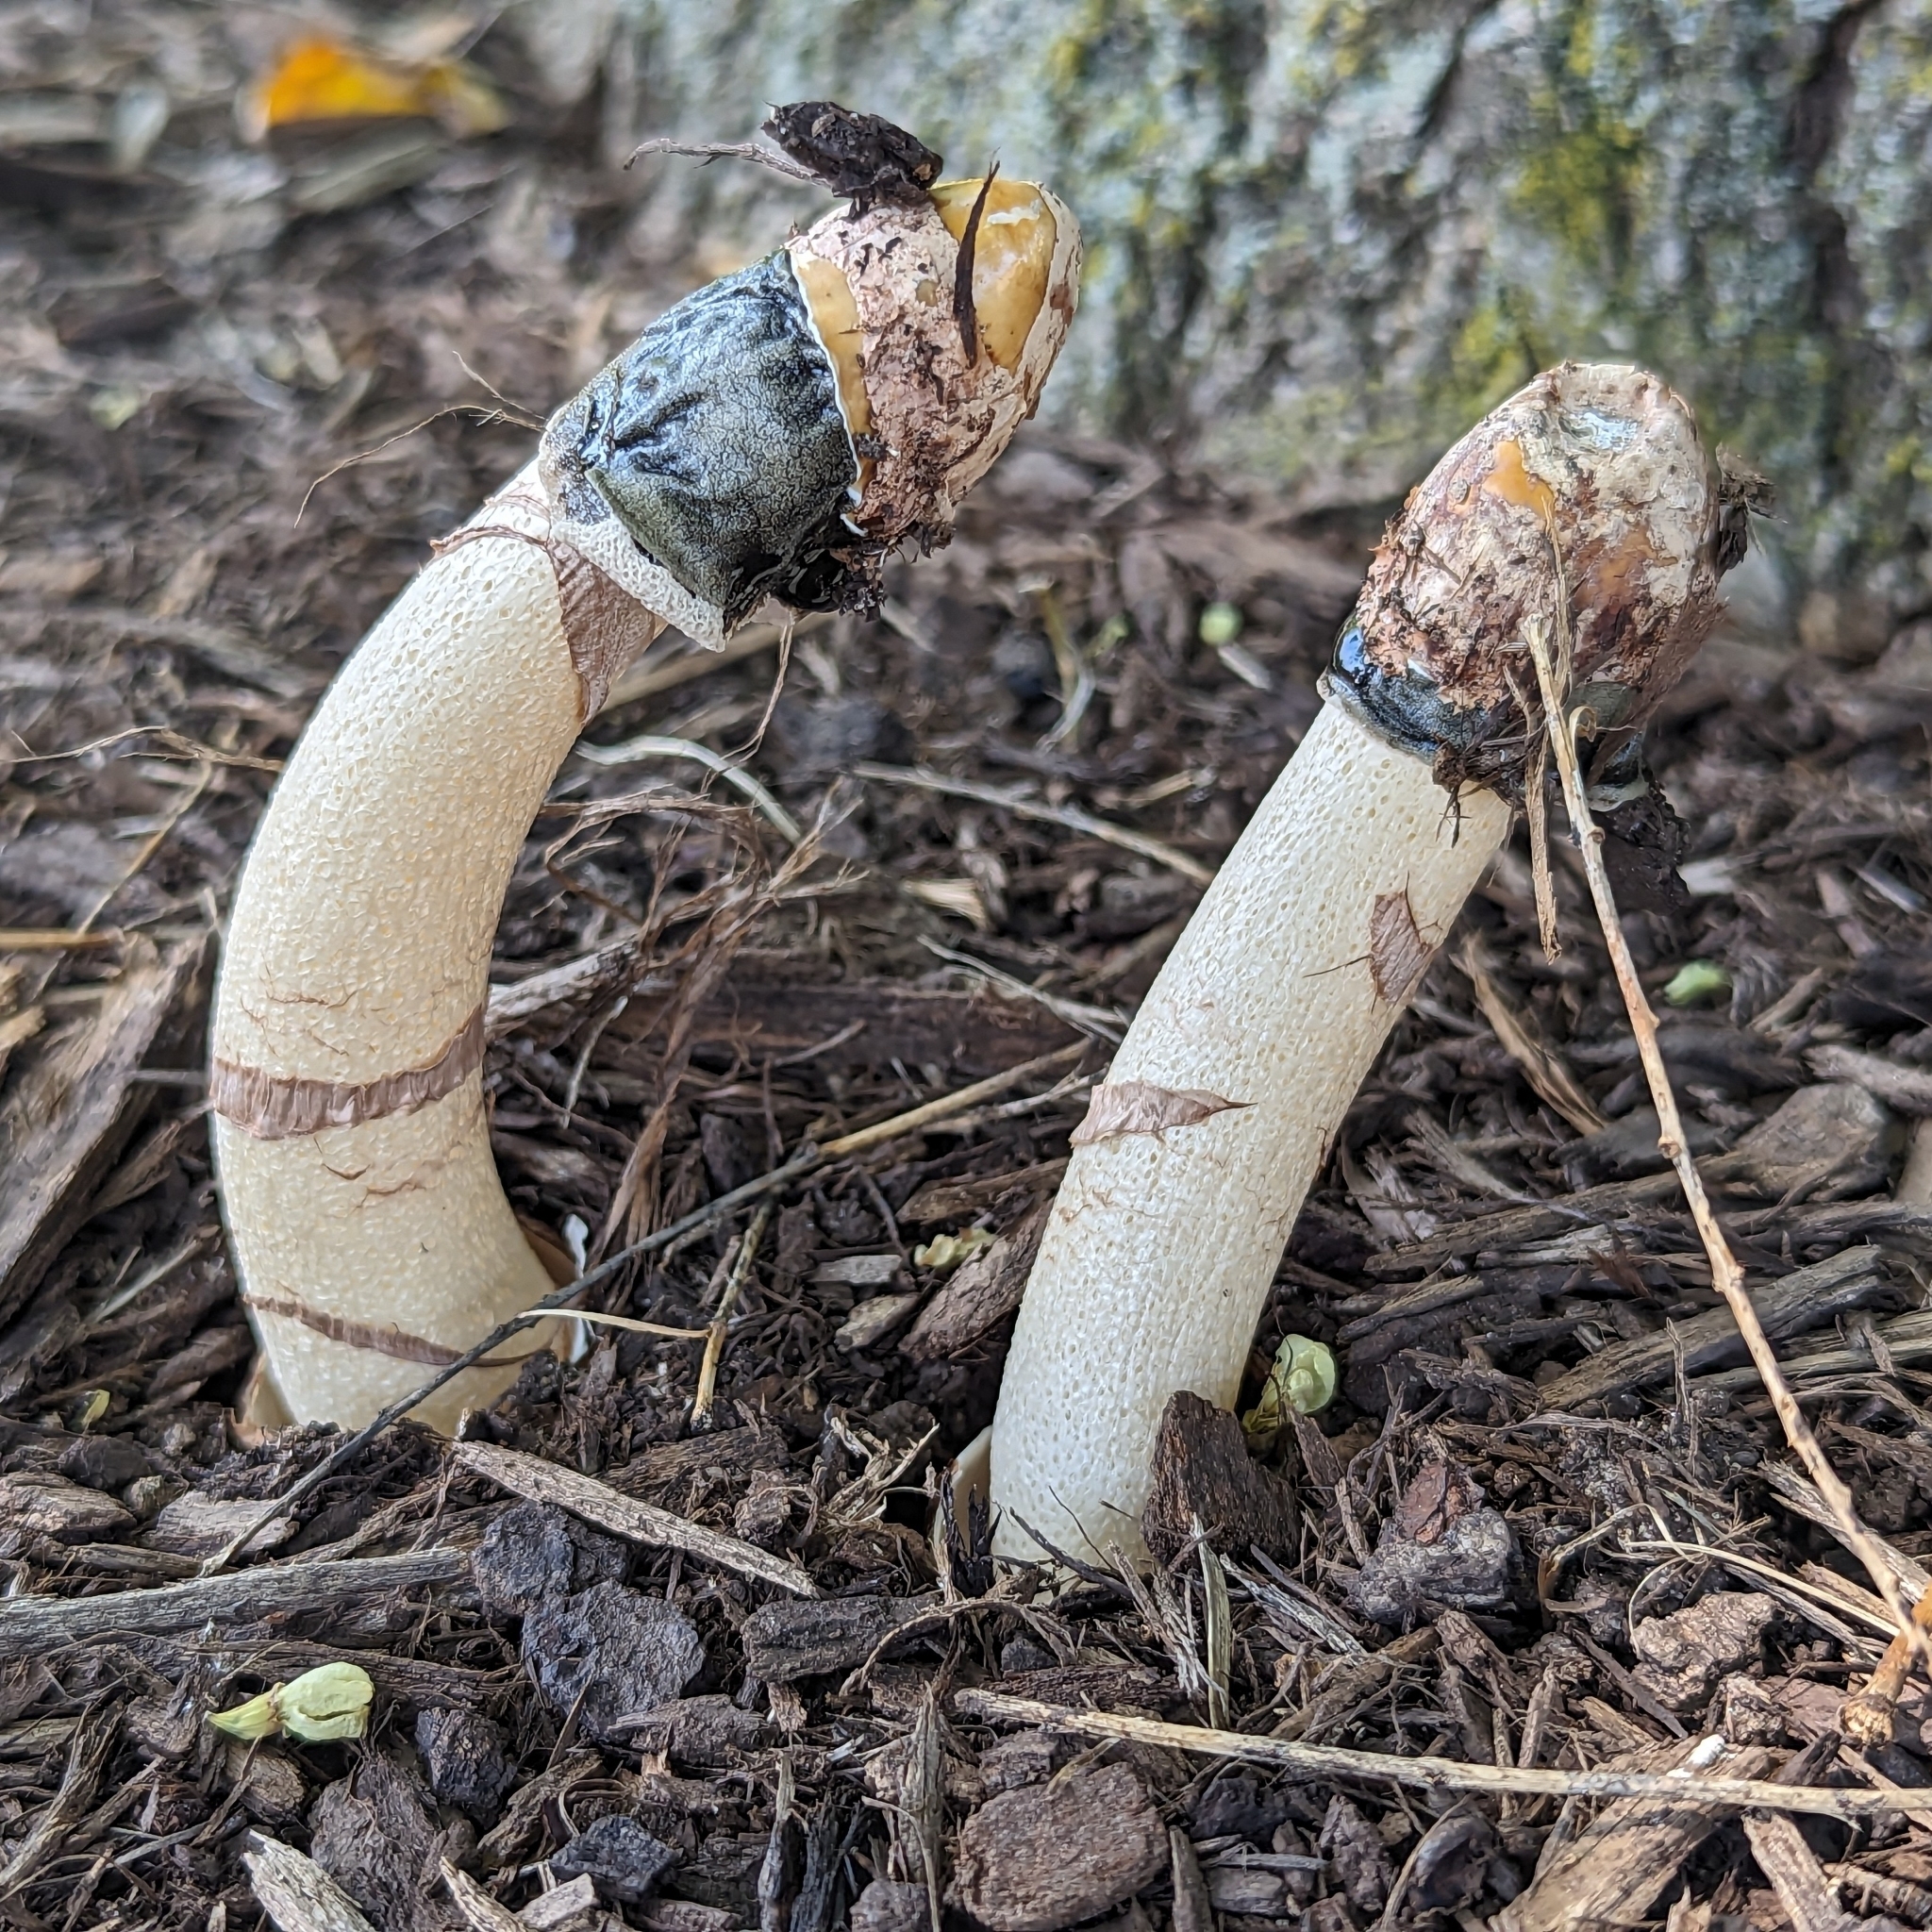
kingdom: Fungi
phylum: Basidiomycota
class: Agaricomycetes
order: Phallales
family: Phallaceae
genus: Phallus
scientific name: Phallus ravenelii
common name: Ravenel's stinkhorn
